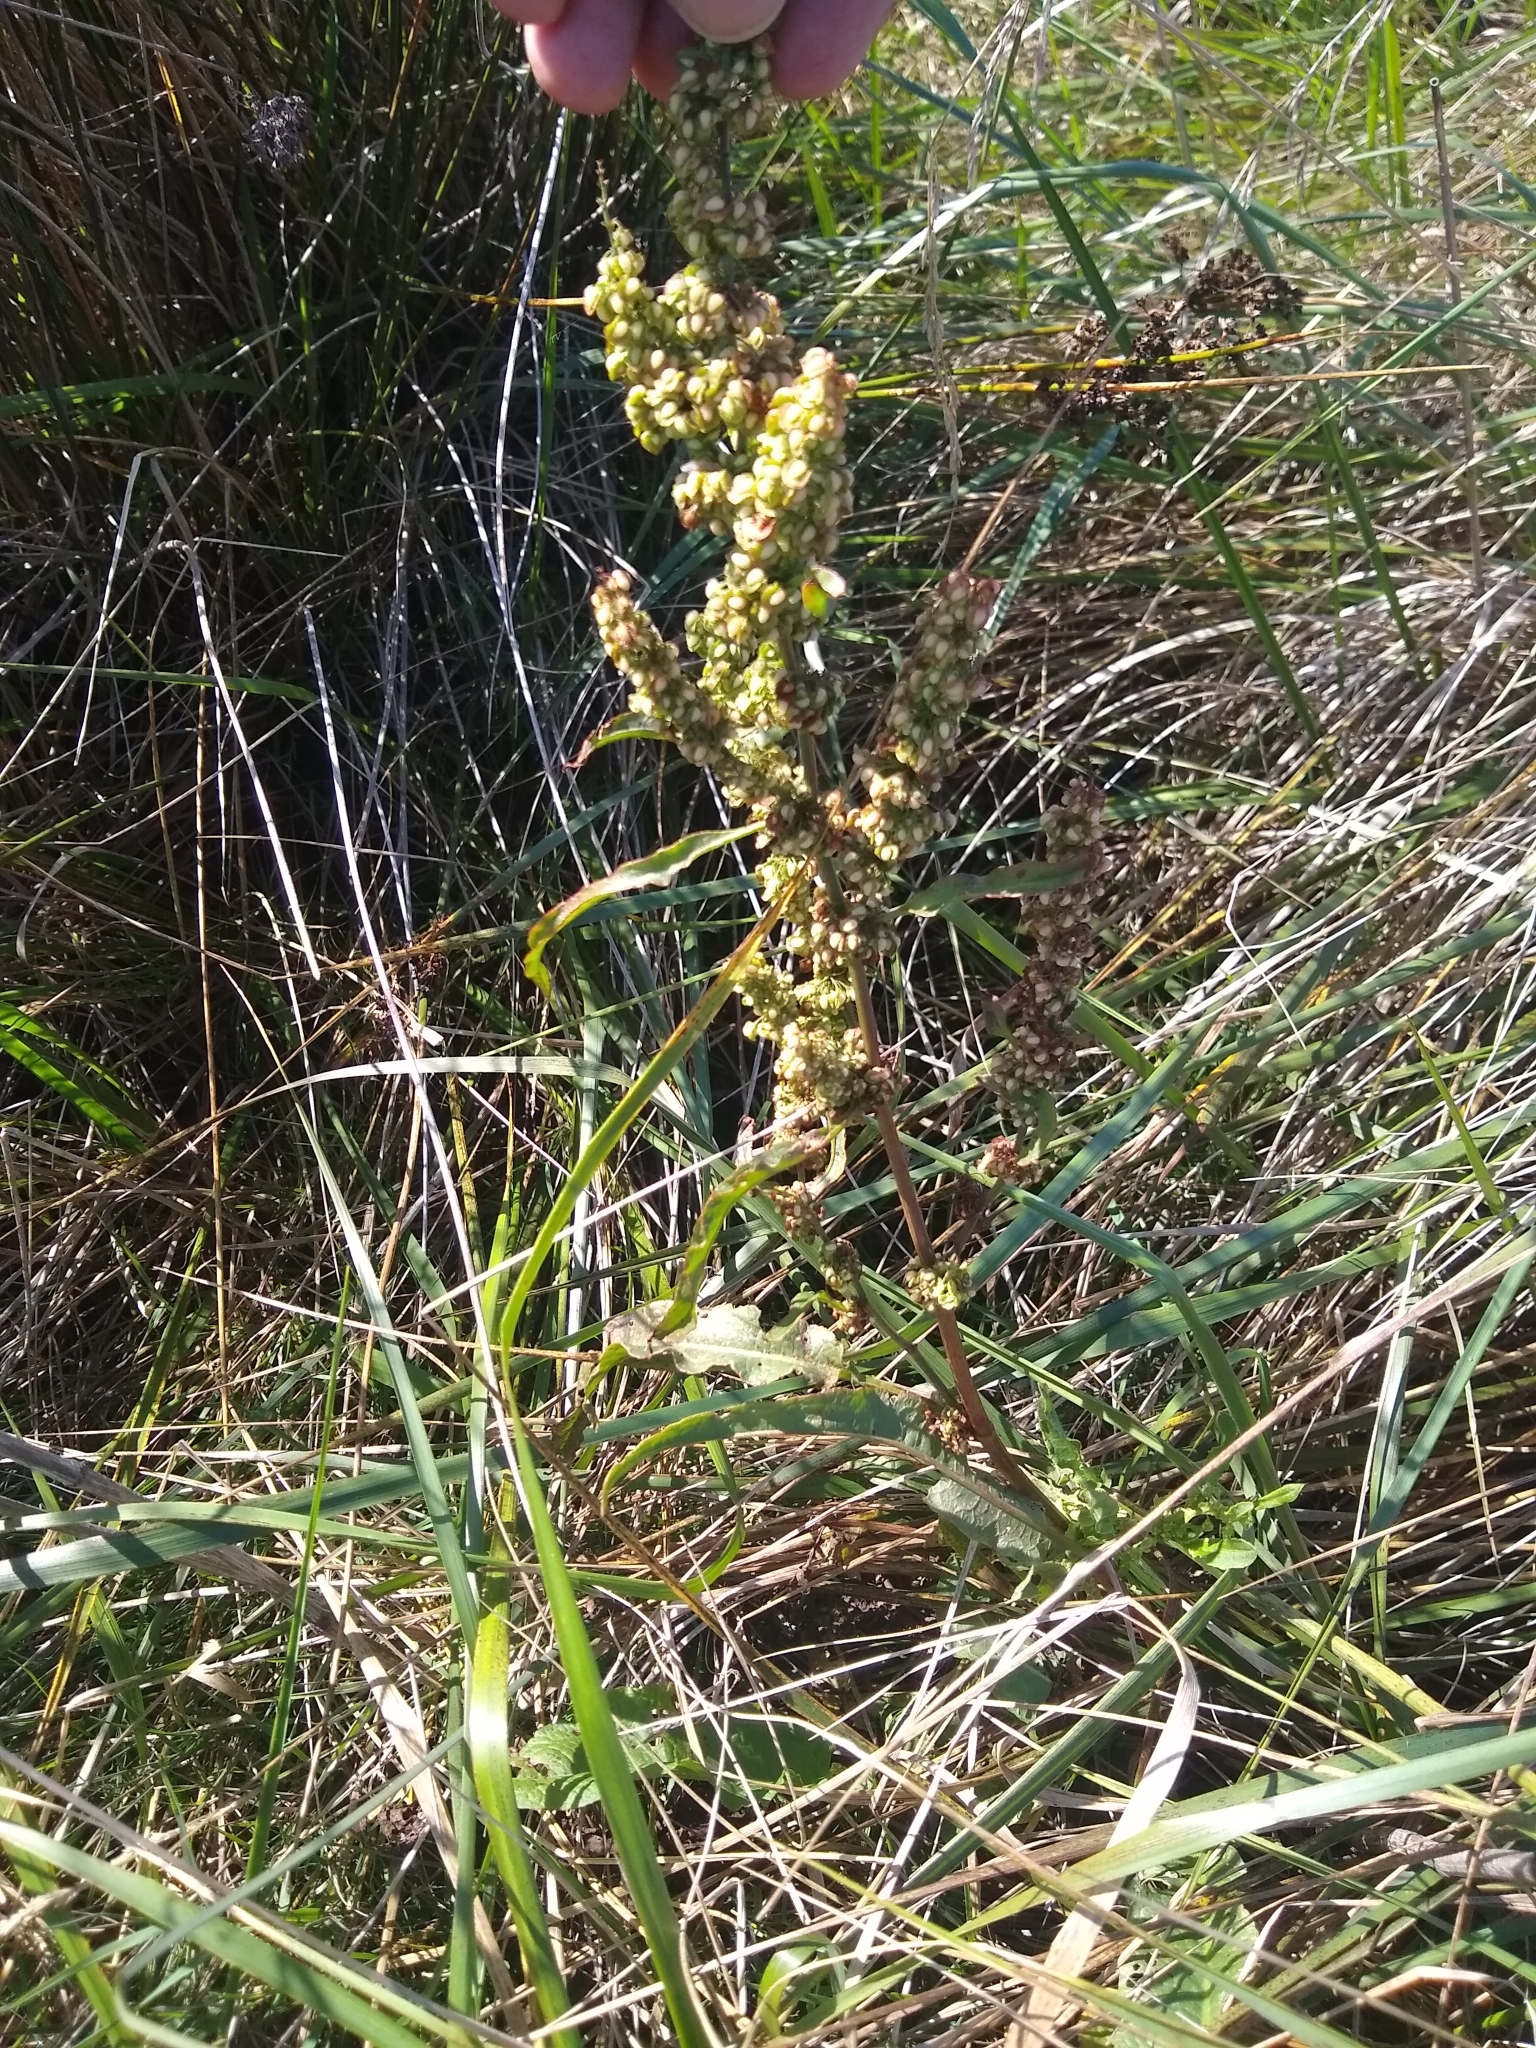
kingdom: Plantae
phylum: Tracheophyta
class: Magnoliopsida
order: Caryophyllales
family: Polygonaceae
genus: Rumex
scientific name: Rumex crispus
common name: Curled dock
